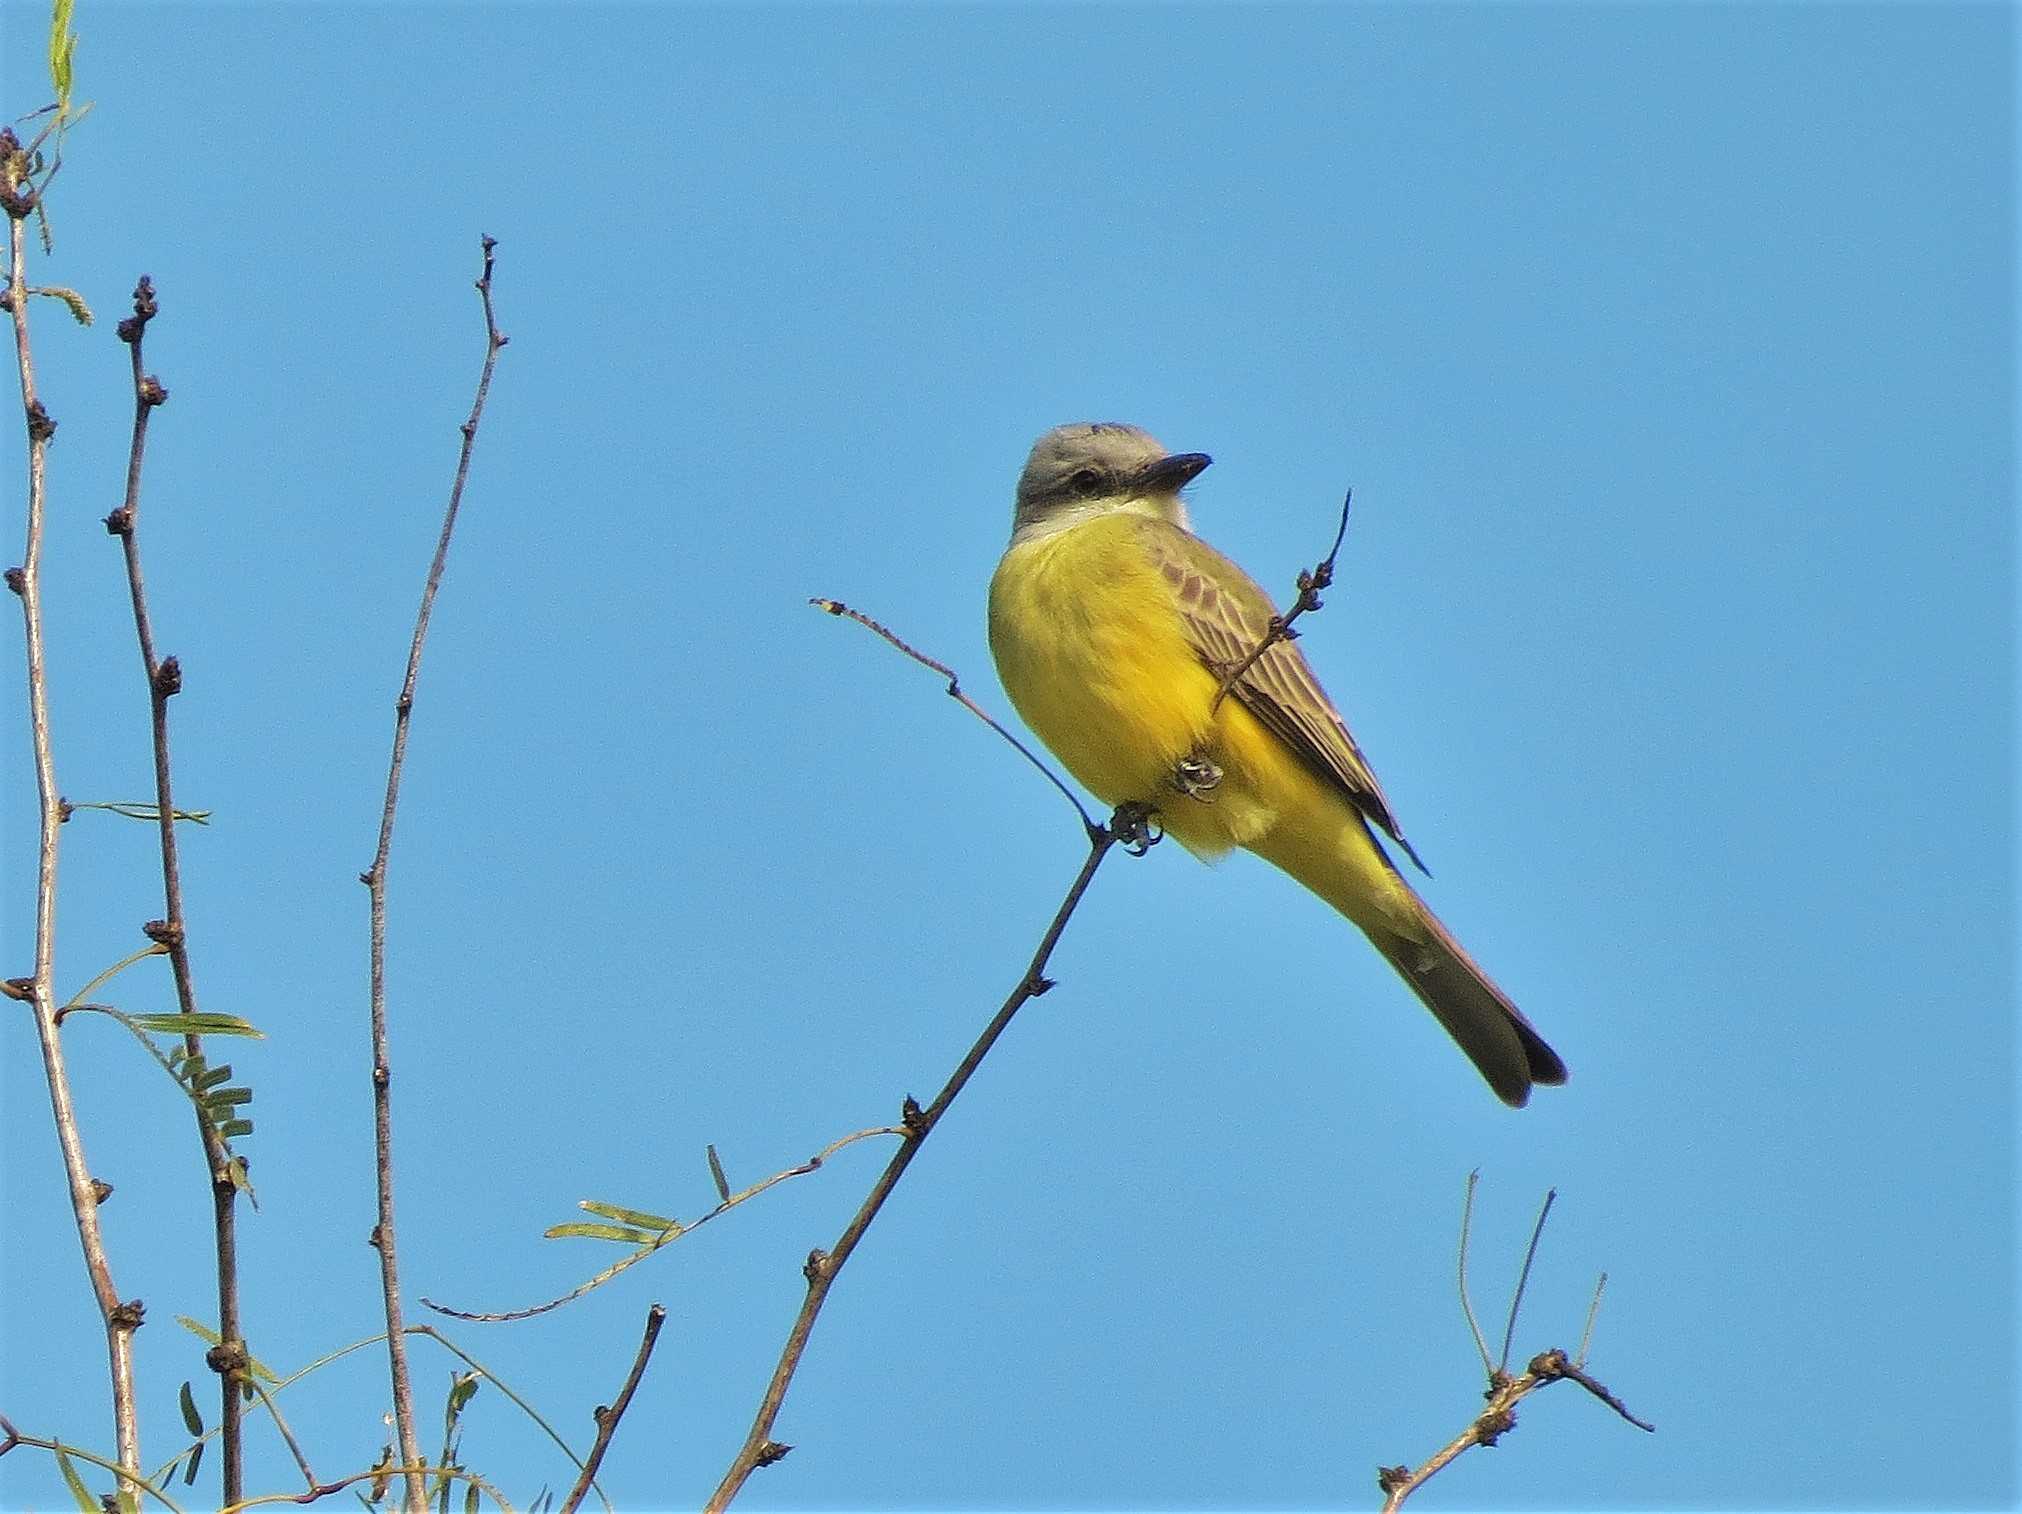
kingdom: Animalia
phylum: Chordata
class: Aves
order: Passeriformes
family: Tyrannidae
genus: Tyrannus
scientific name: Tyrannus couchii
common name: Couch's kingbird
